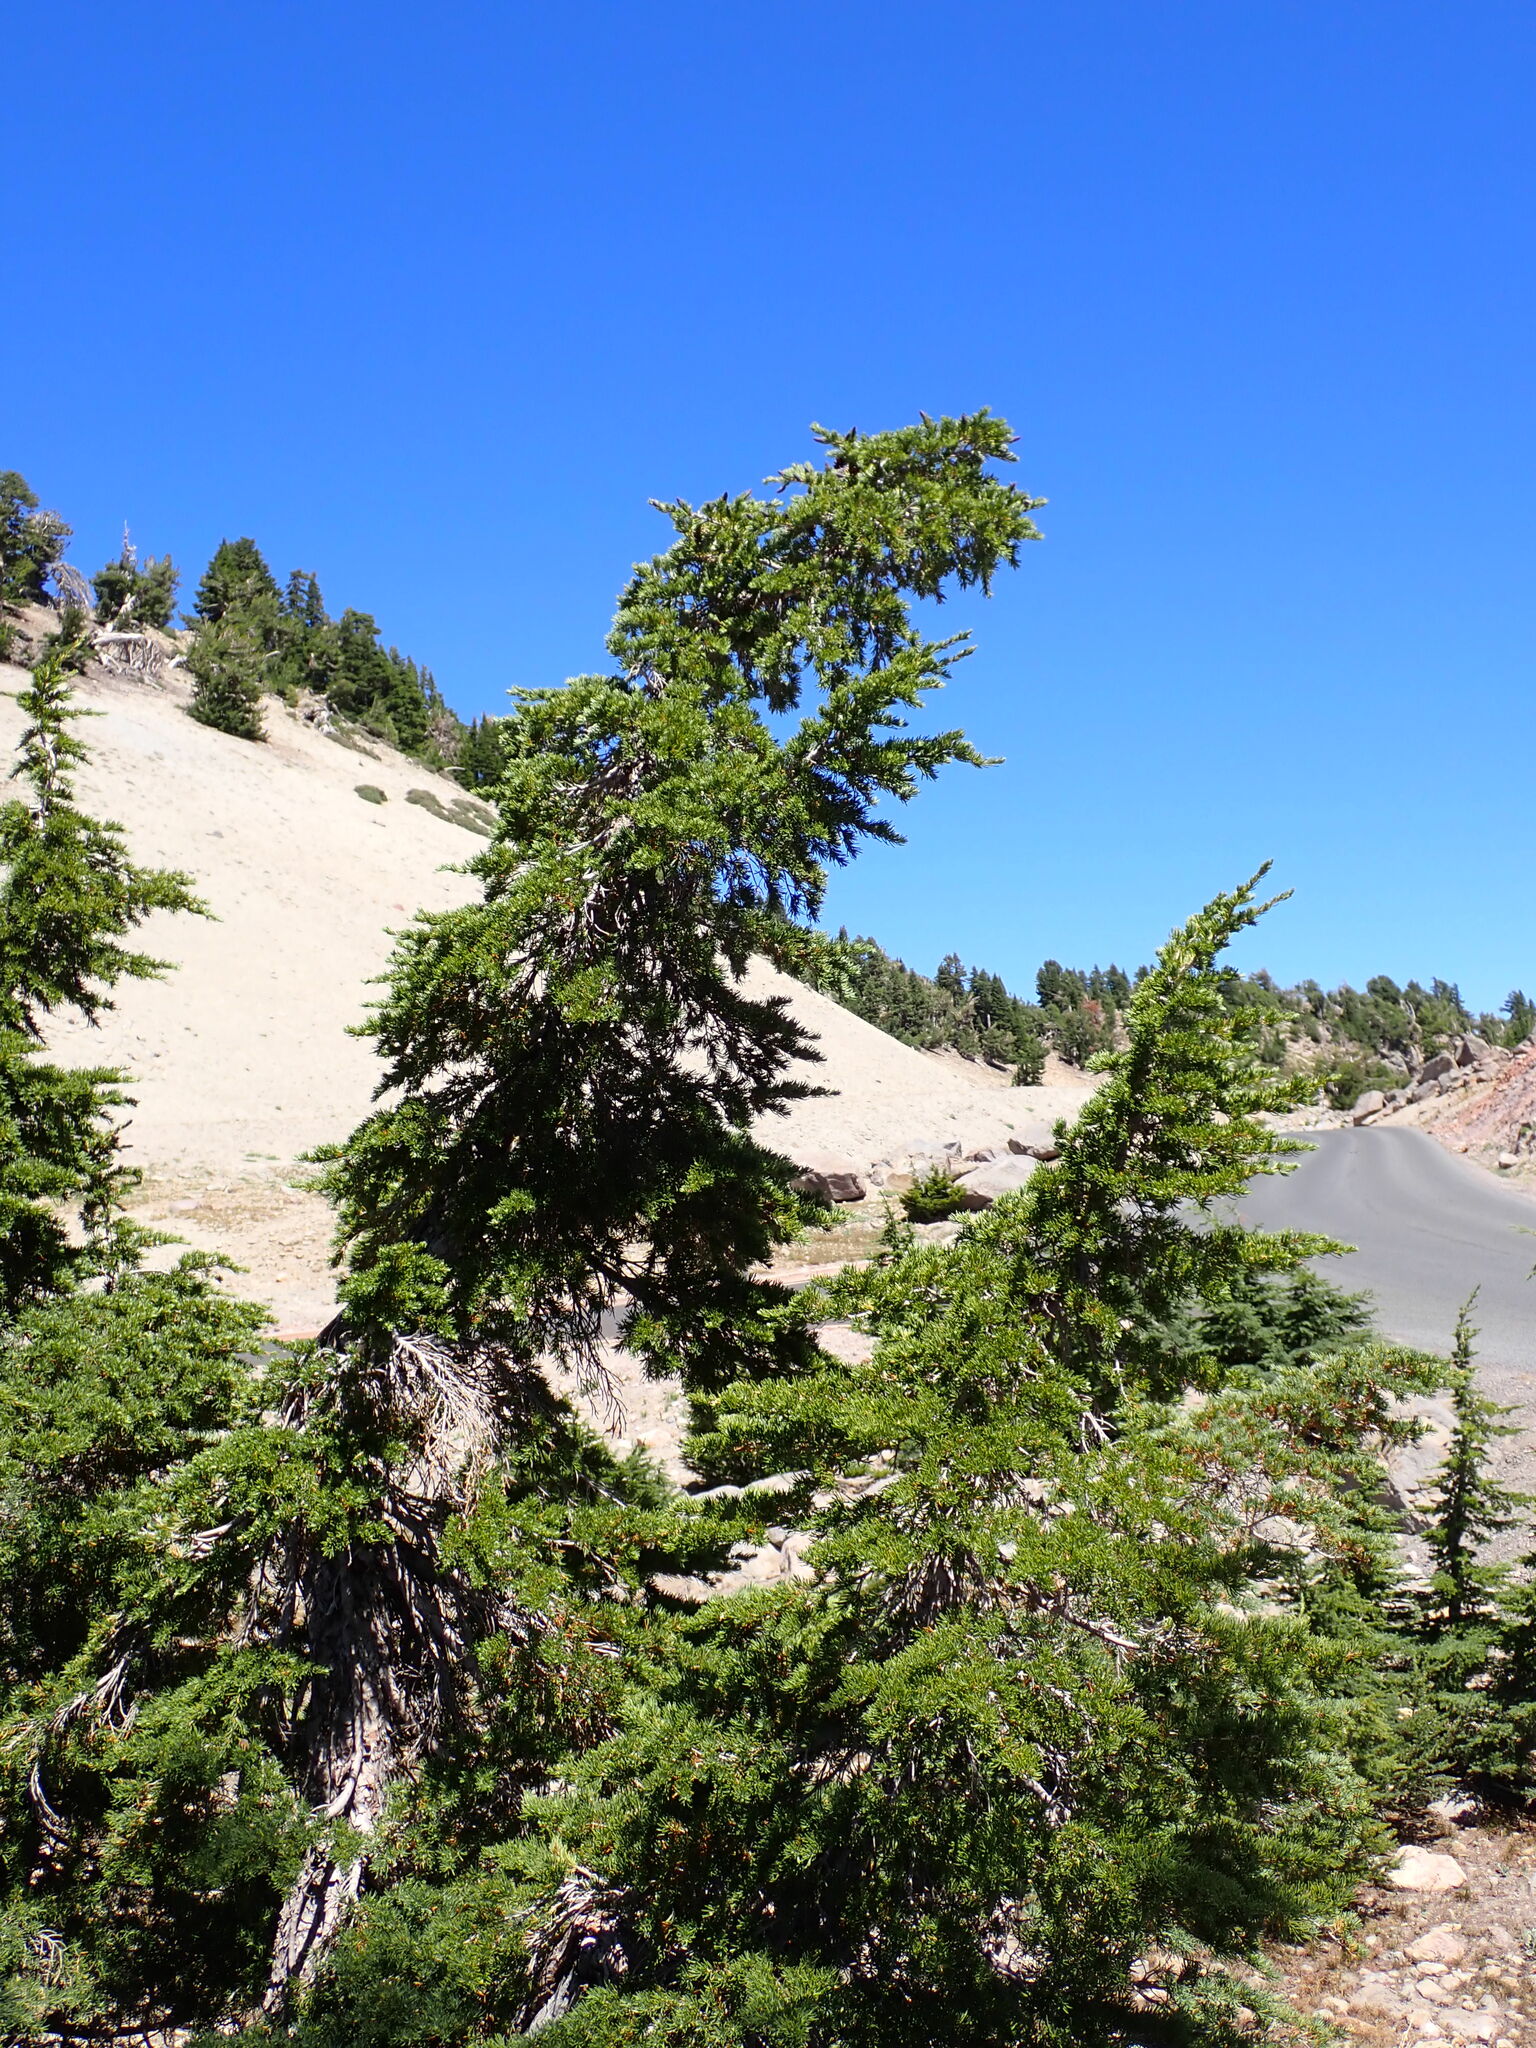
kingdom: Plantae
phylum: Tracheophyta
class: Pinopsida
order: Pinales
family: Pinaceae
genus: Tsuga
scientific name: Tsuga mertensiana
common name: Mountain hemlock
